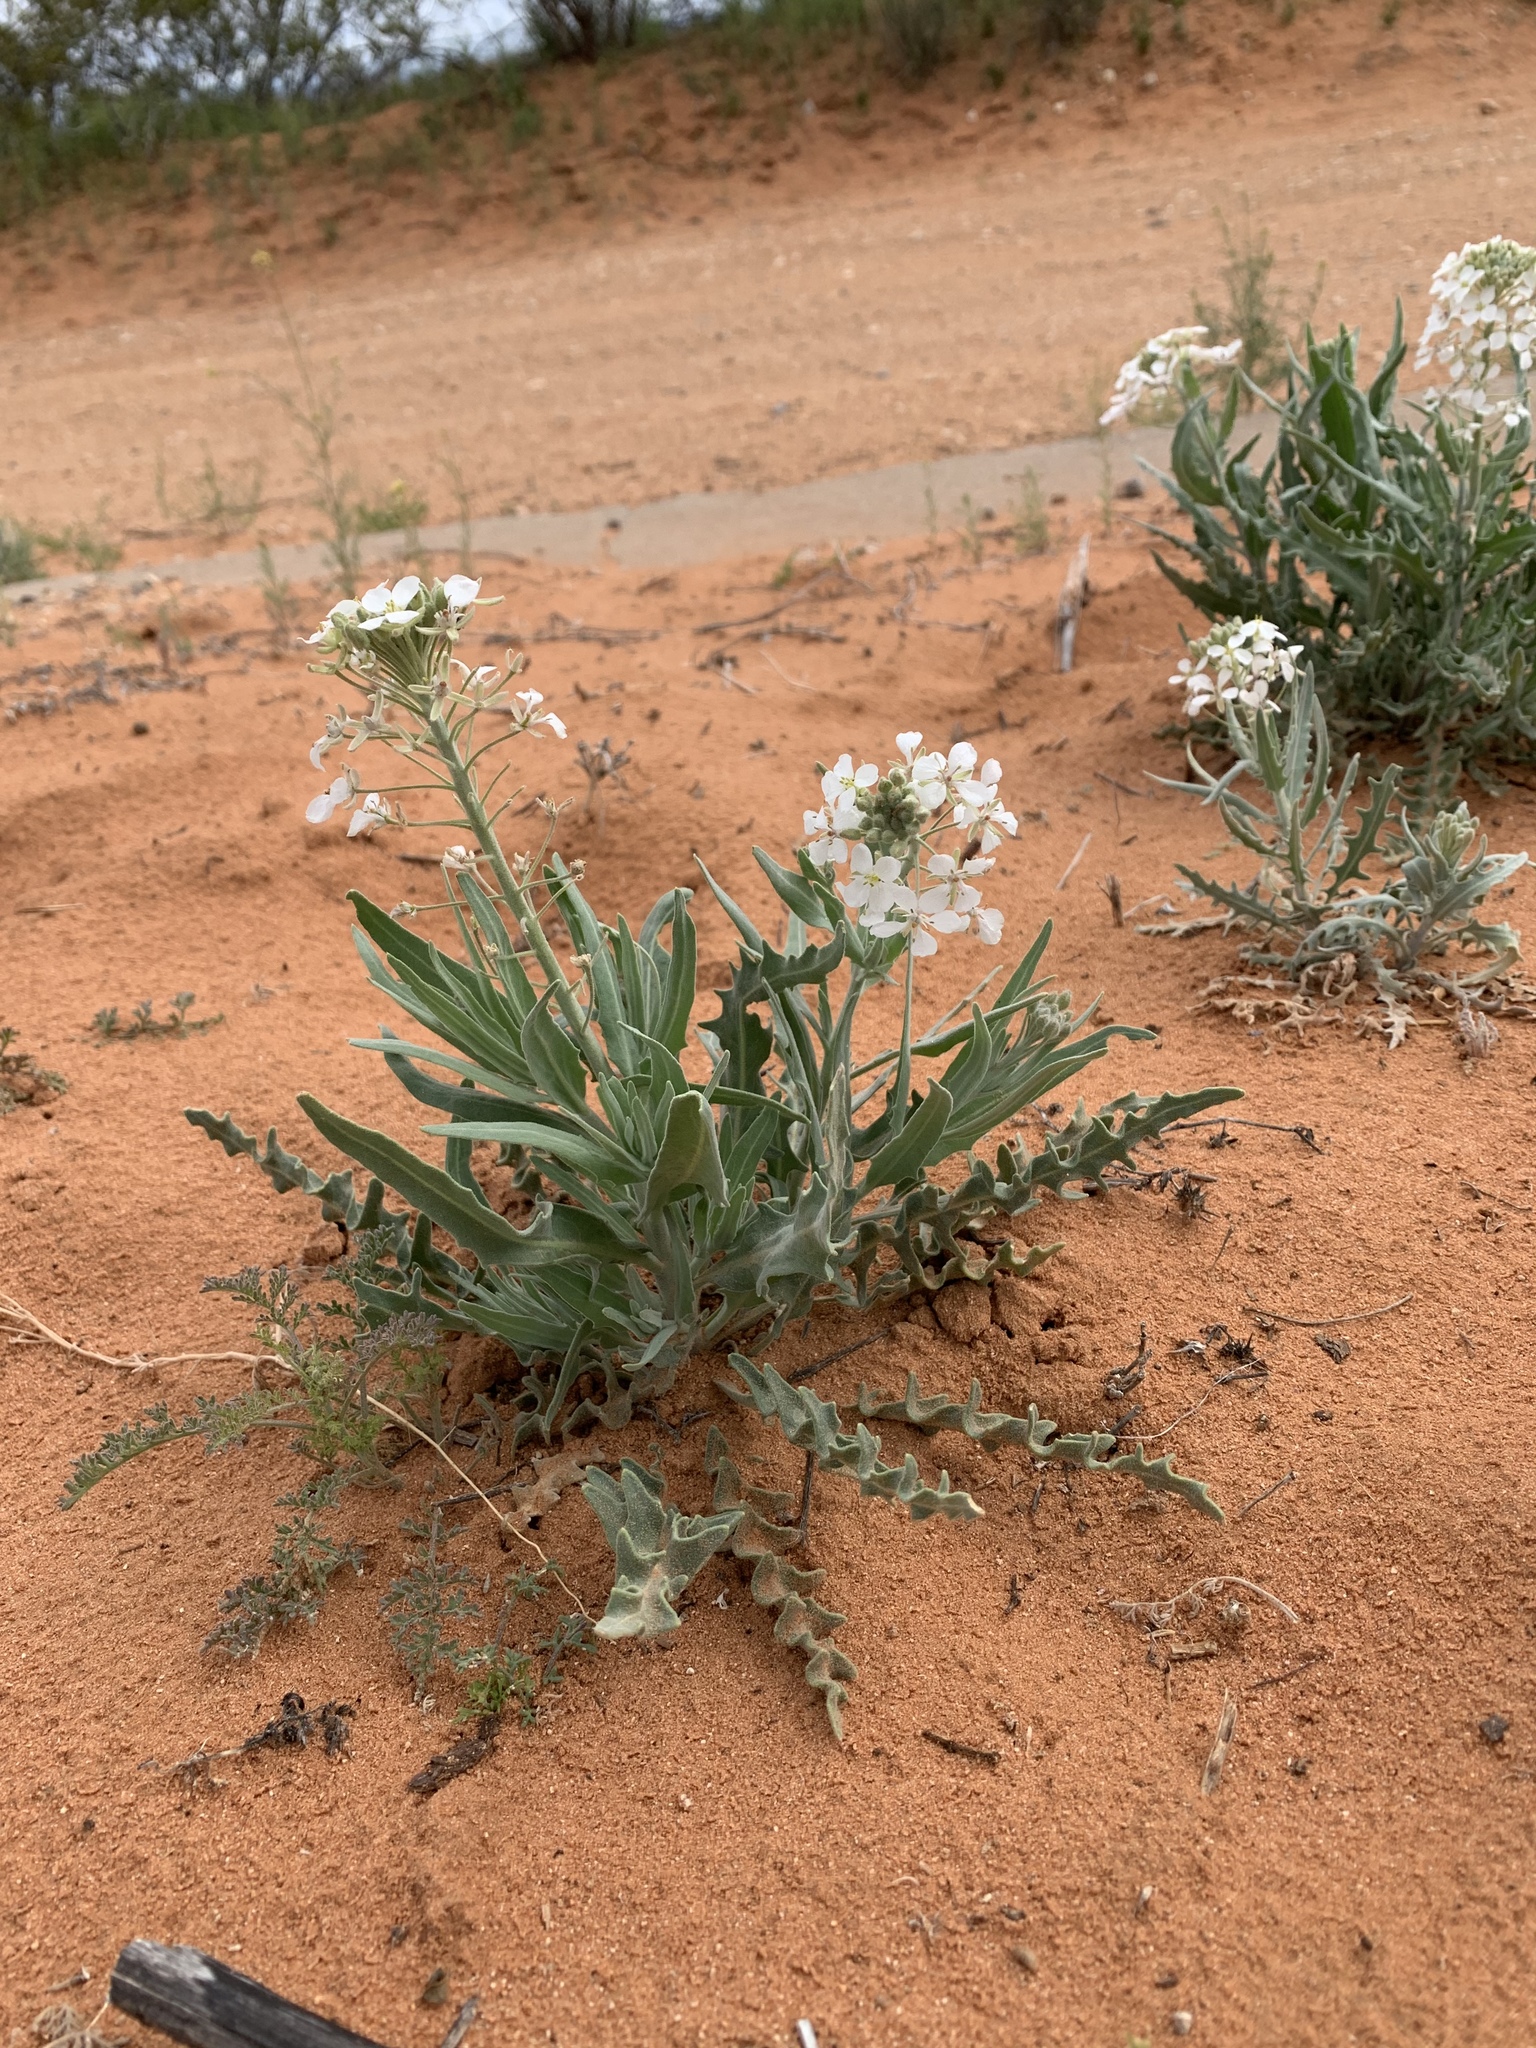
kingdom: Plantae
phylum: Tracheophyta
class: Magnoliopsida
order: Brassicales
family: Brassicaceae
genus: Dimorphocarpa
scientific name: Dimorphocarpa wislizenii
